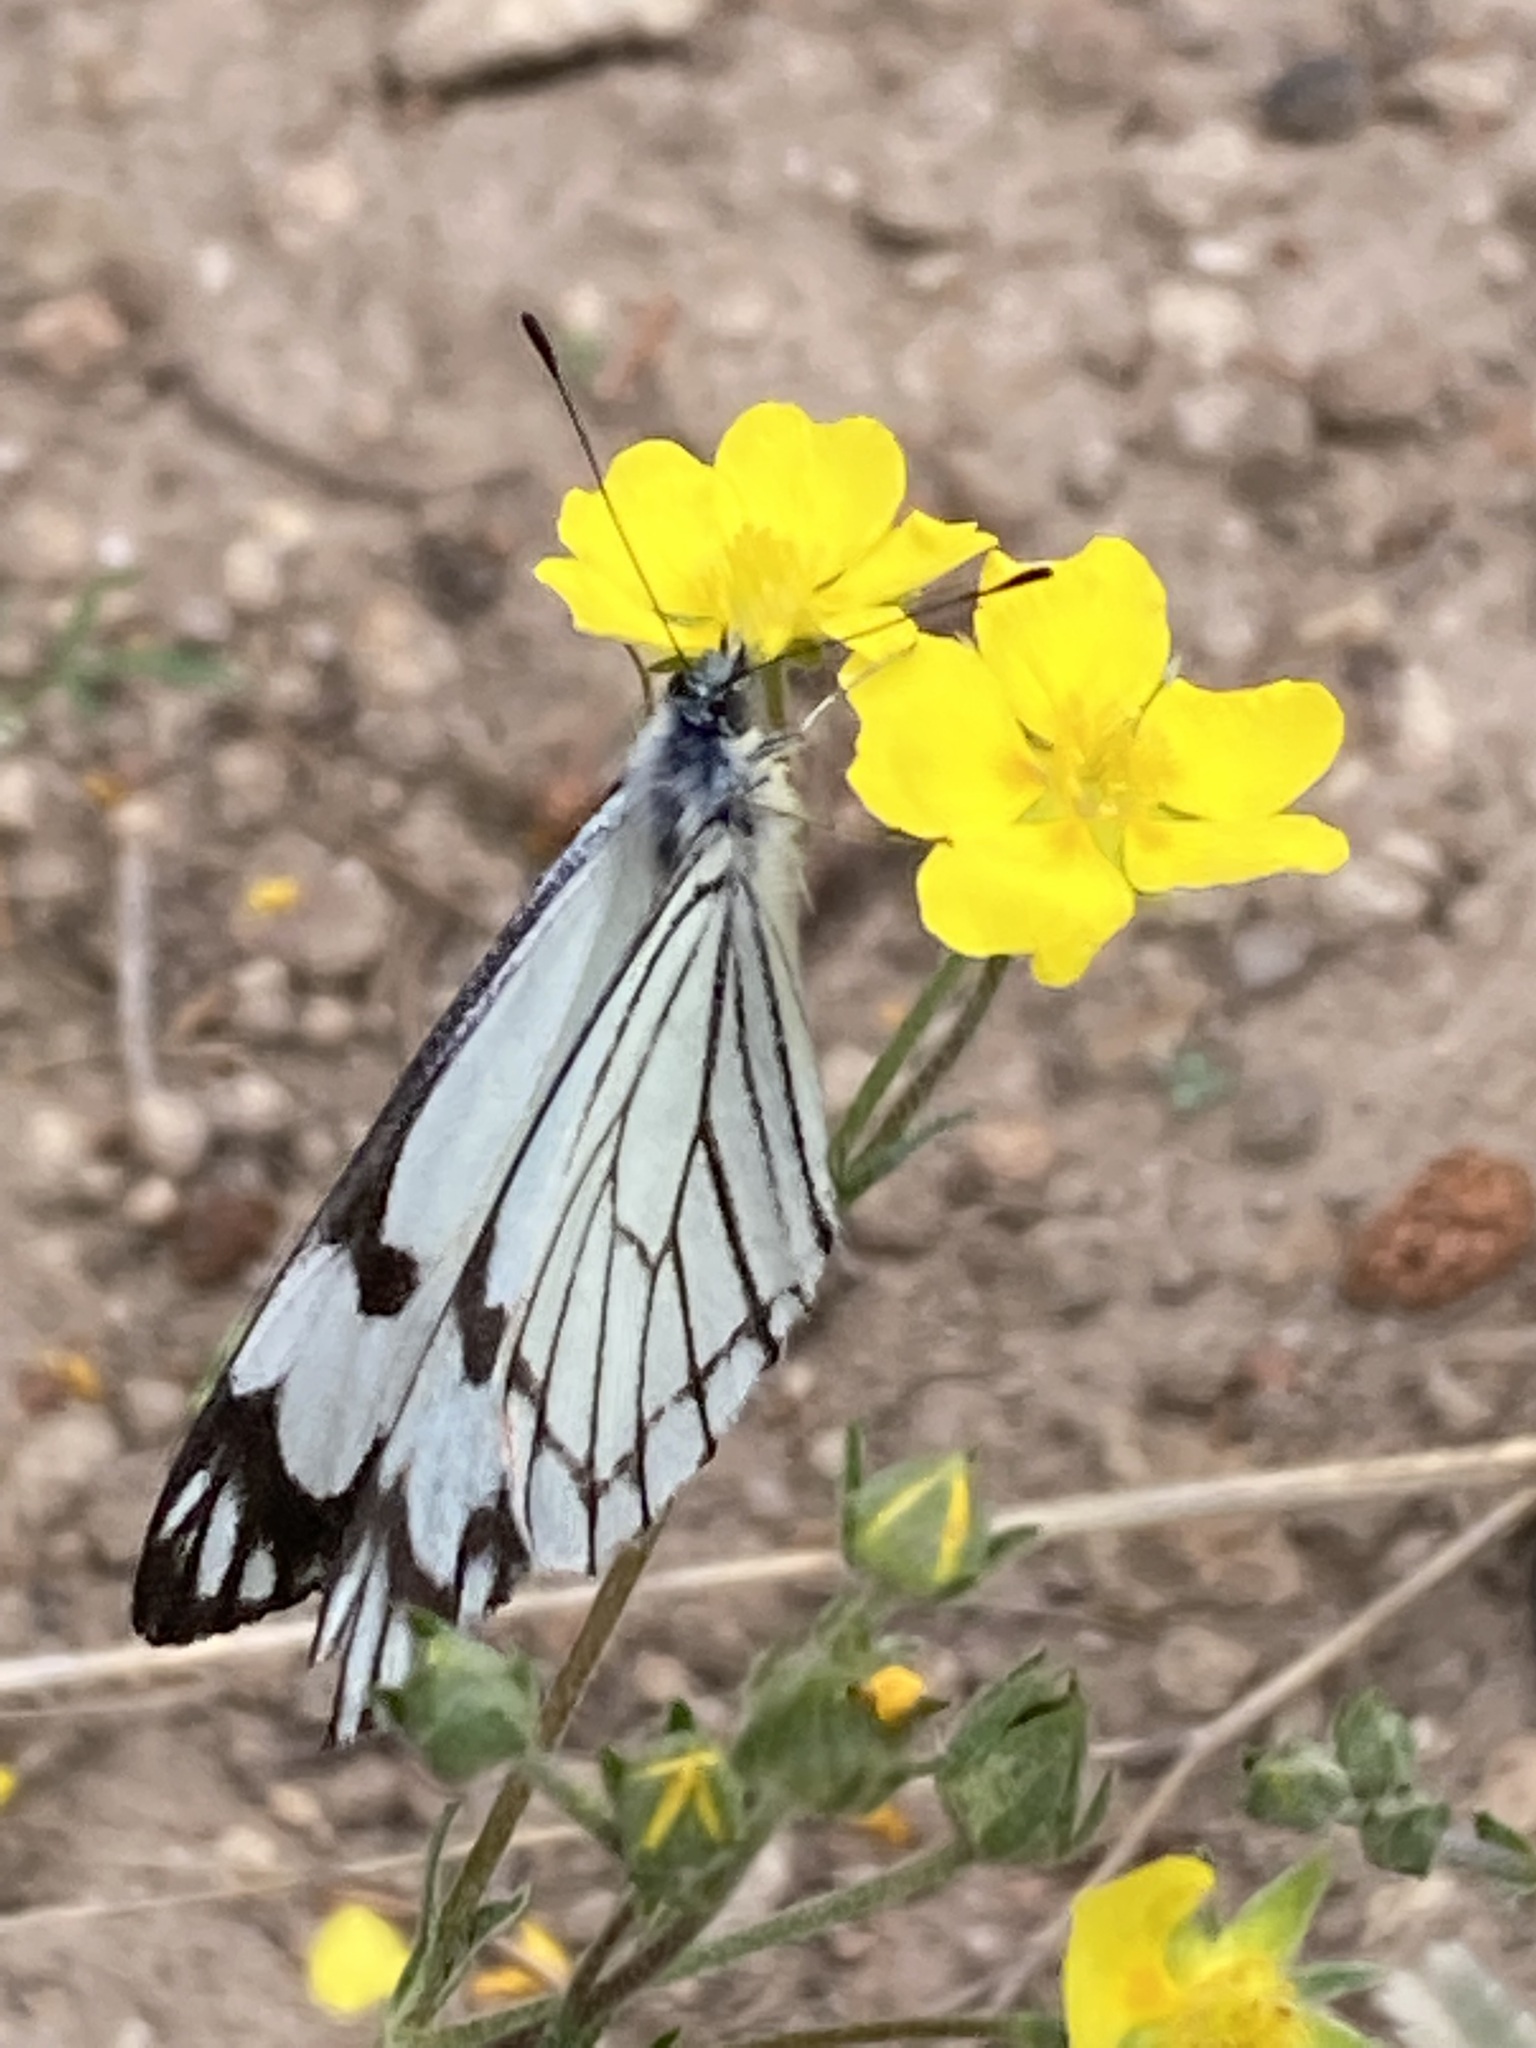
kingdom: Animalia
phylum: Arthropoda
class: Insecta
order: Lepidoptera
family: Pieridae
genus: Neophasia
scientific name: Neophasia menapia
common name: Pine white
